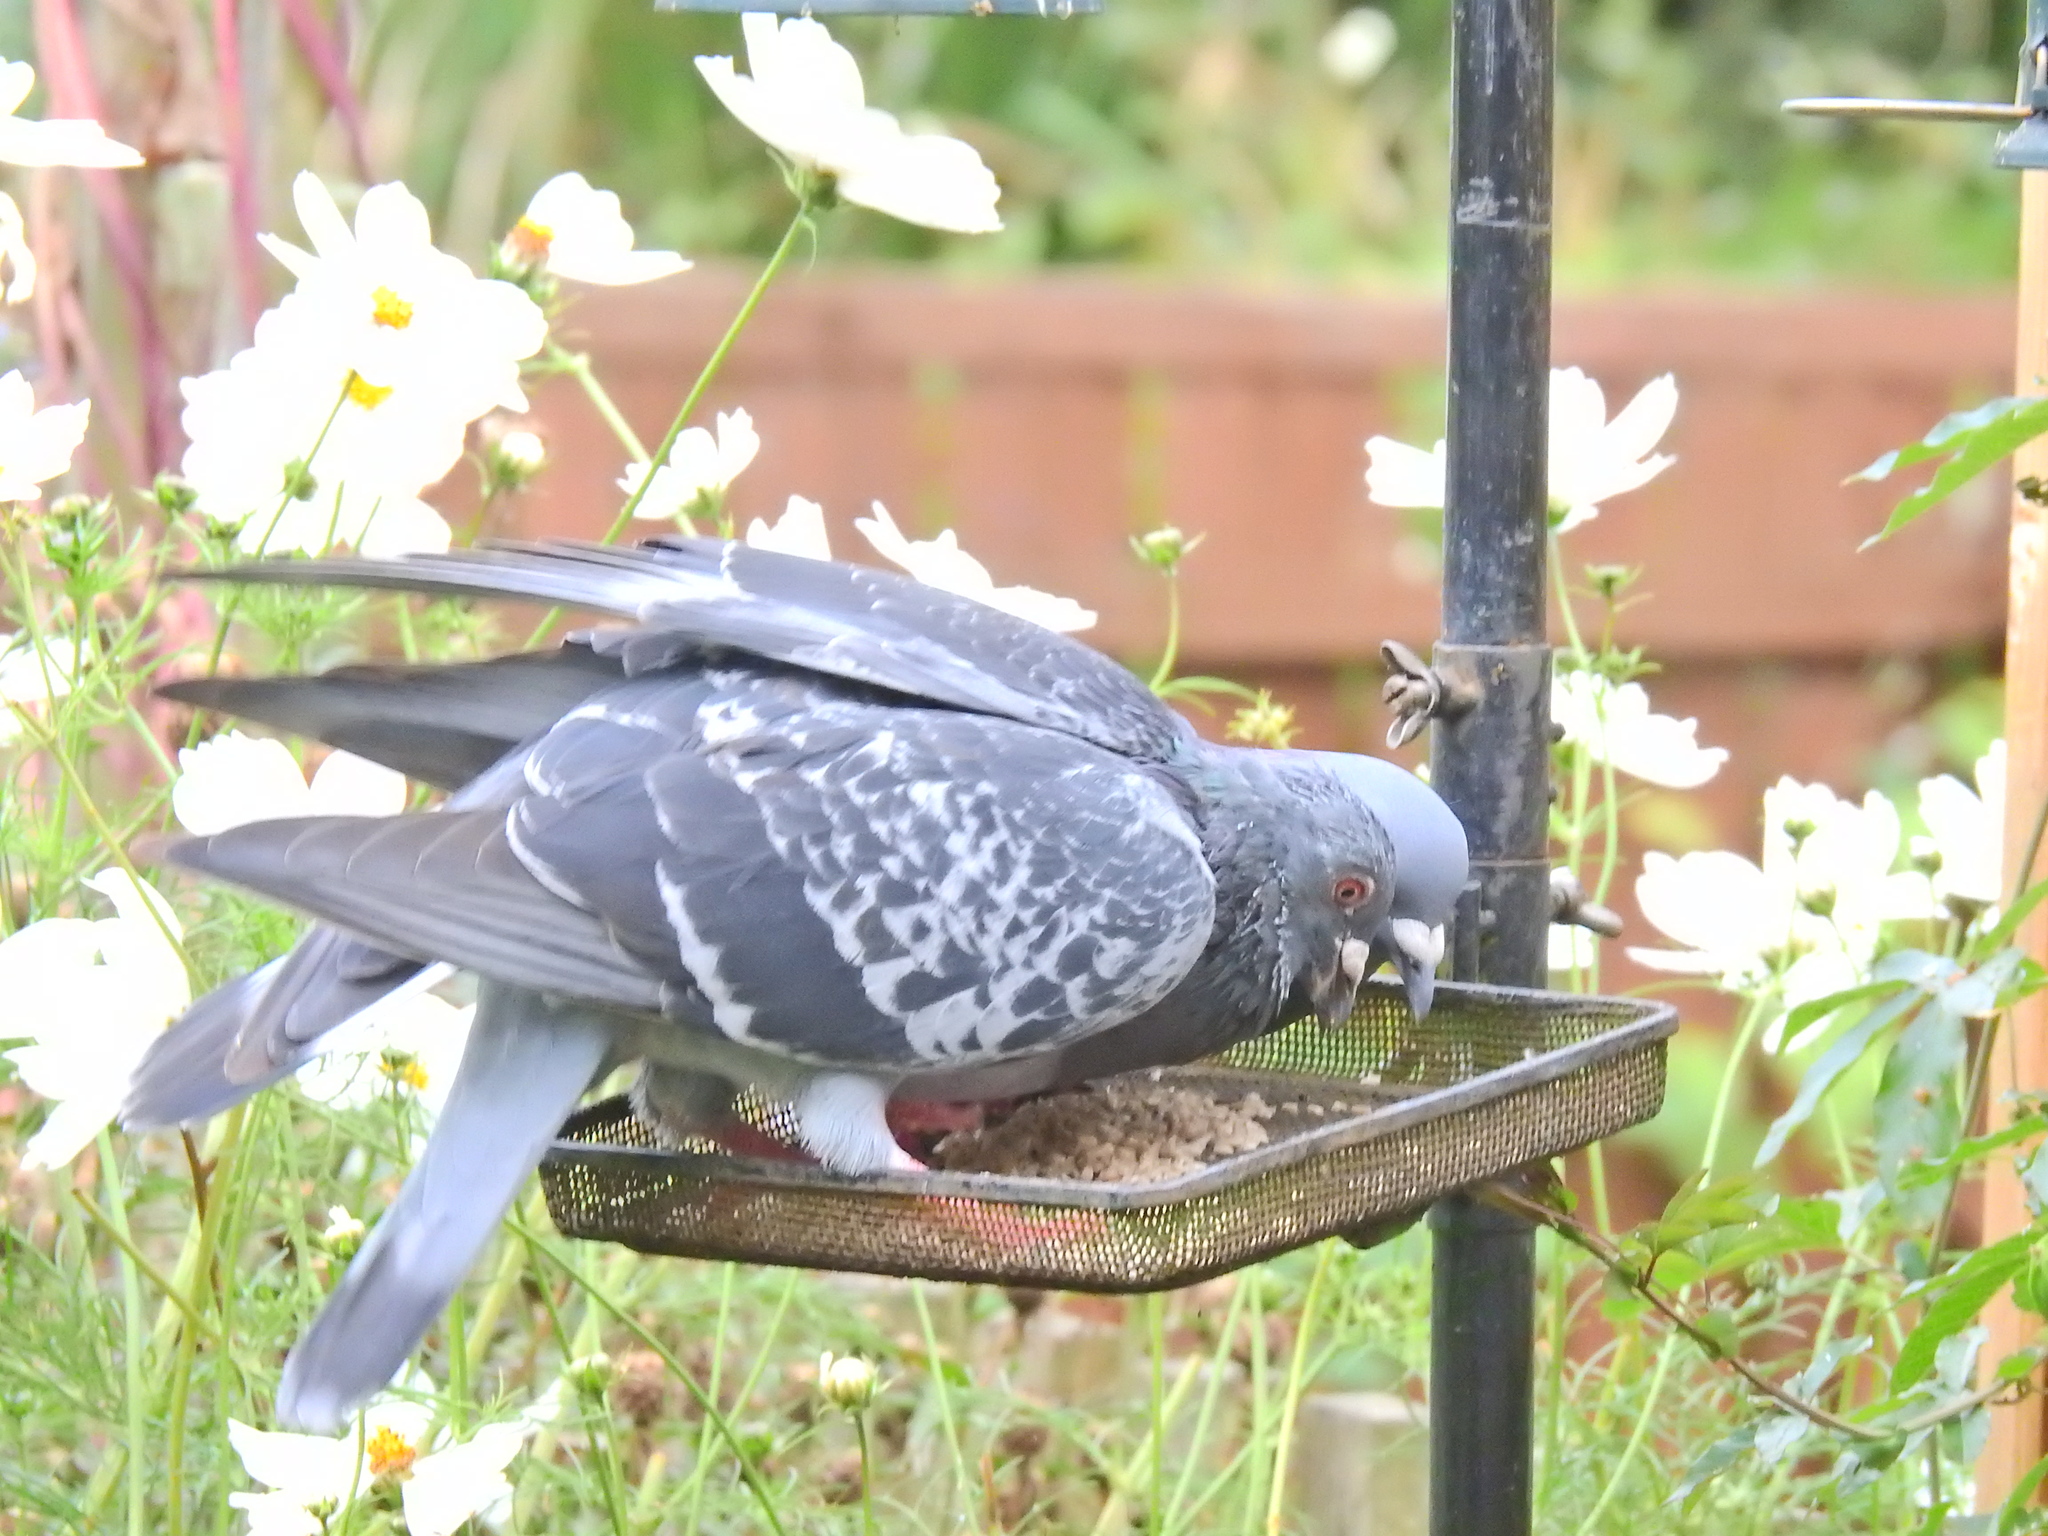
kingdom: Animalia
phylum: Chordata
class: Aves
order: Columbiformes
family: Columbidae
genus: Columba
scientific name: Columba livia
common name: Rock pigeon
